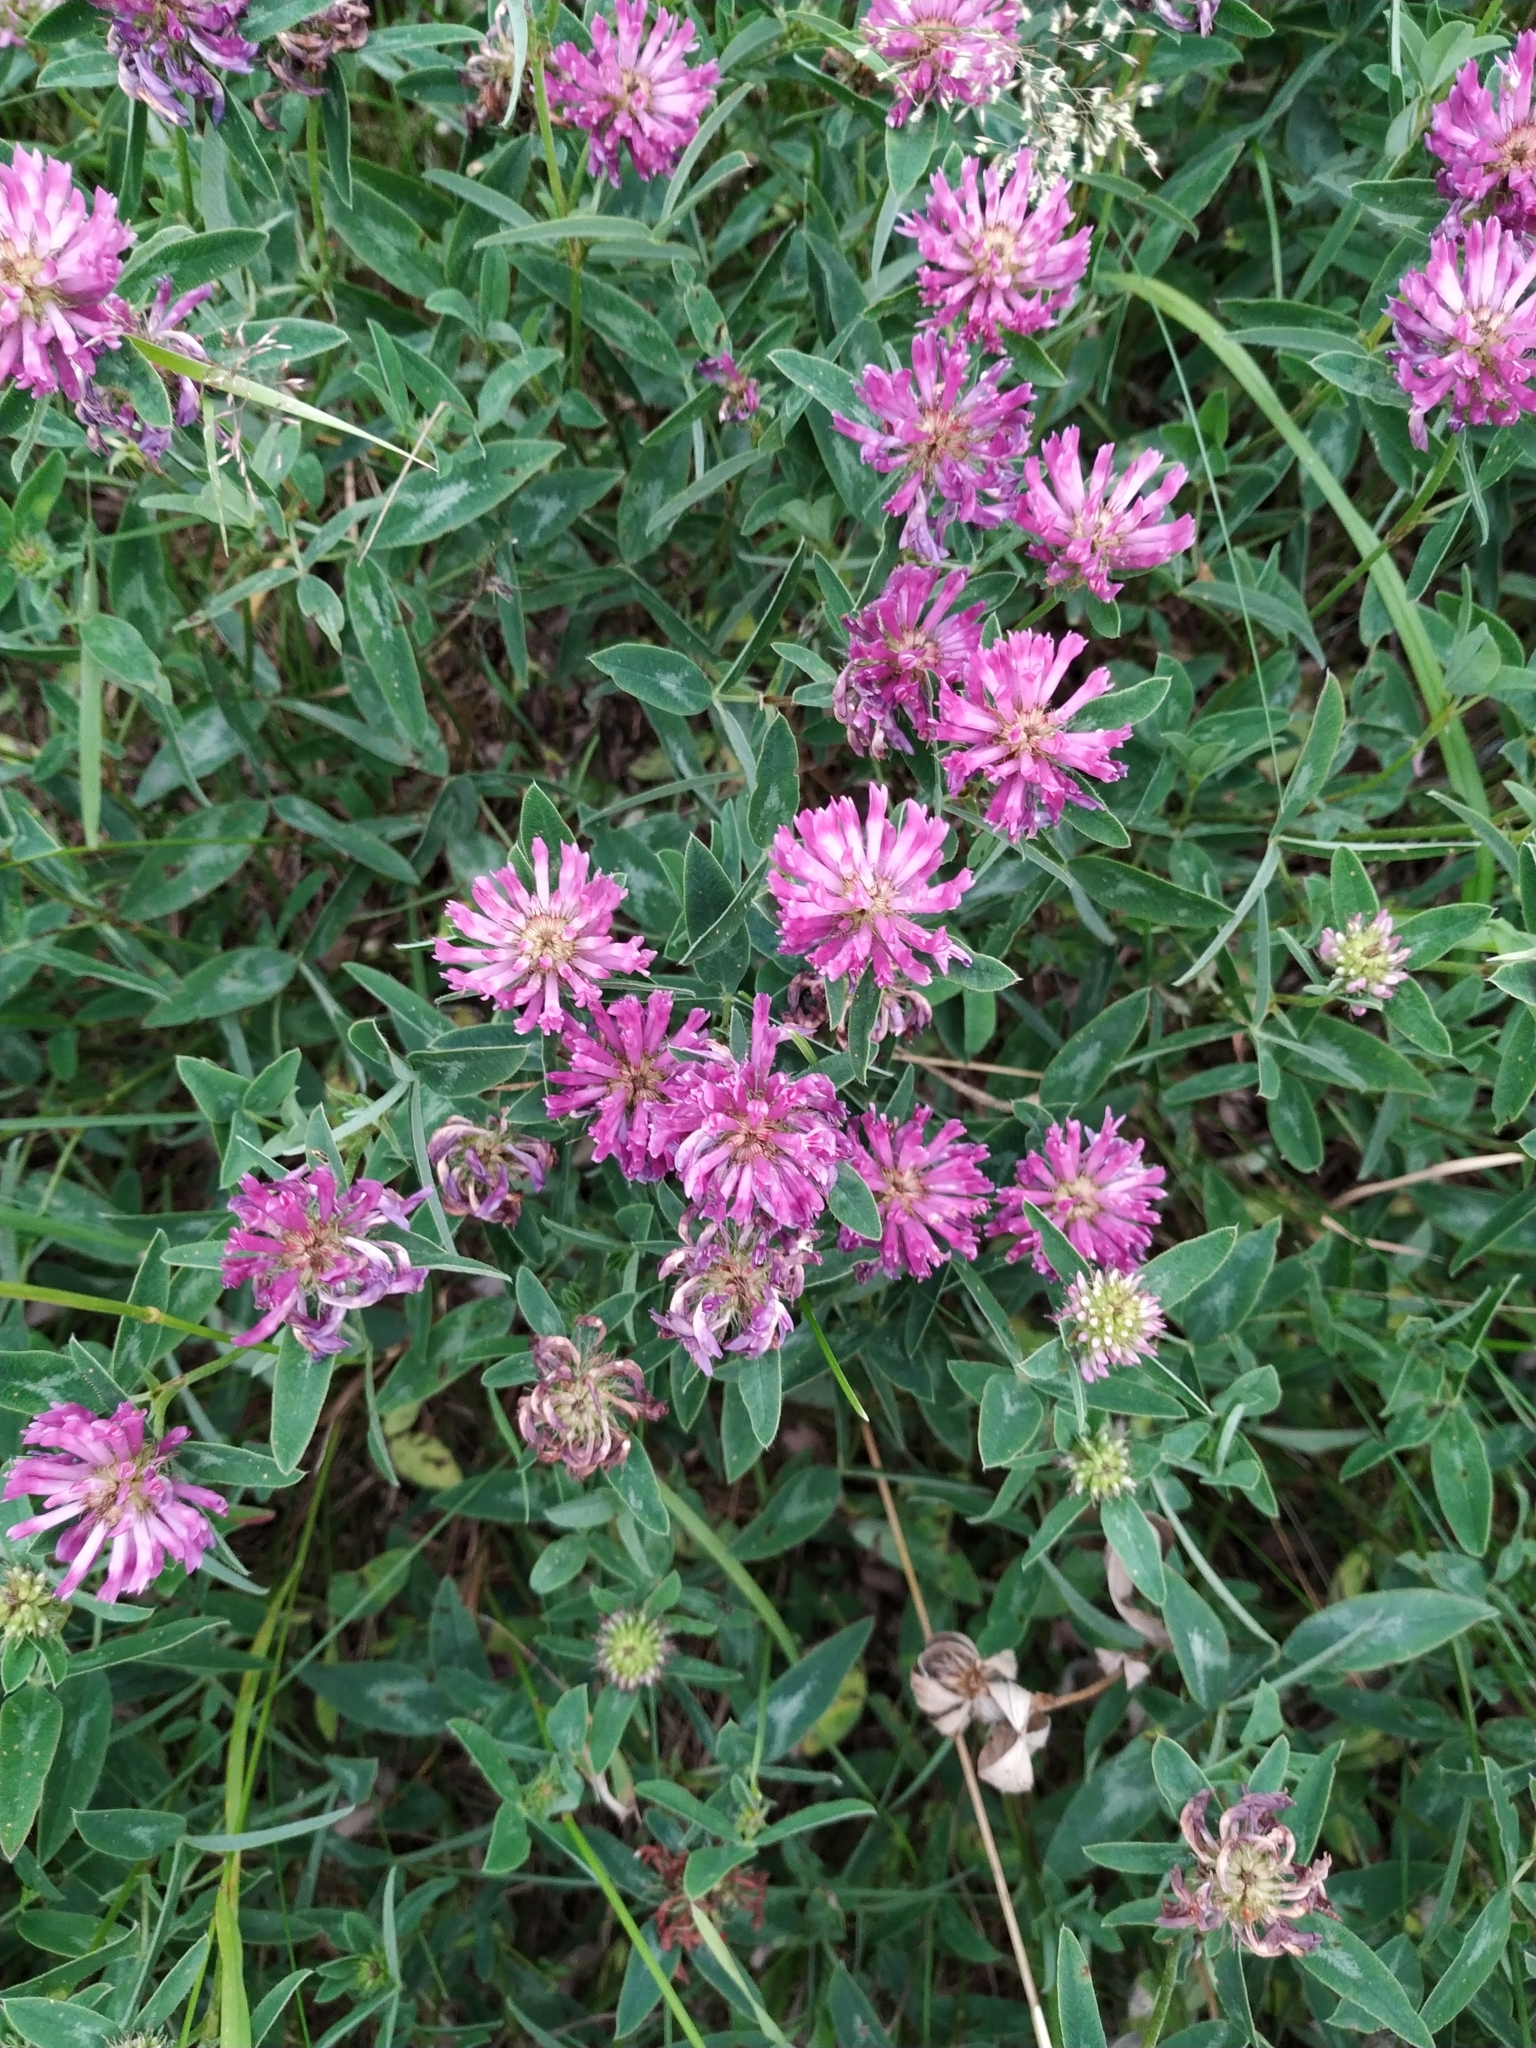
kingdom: Plantae
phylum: Tracheophyta
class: Magnoliopsida
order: Fabales
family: Fabaceae
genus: Trifolium
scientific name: Trifolium medium
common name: Zigzag clover
